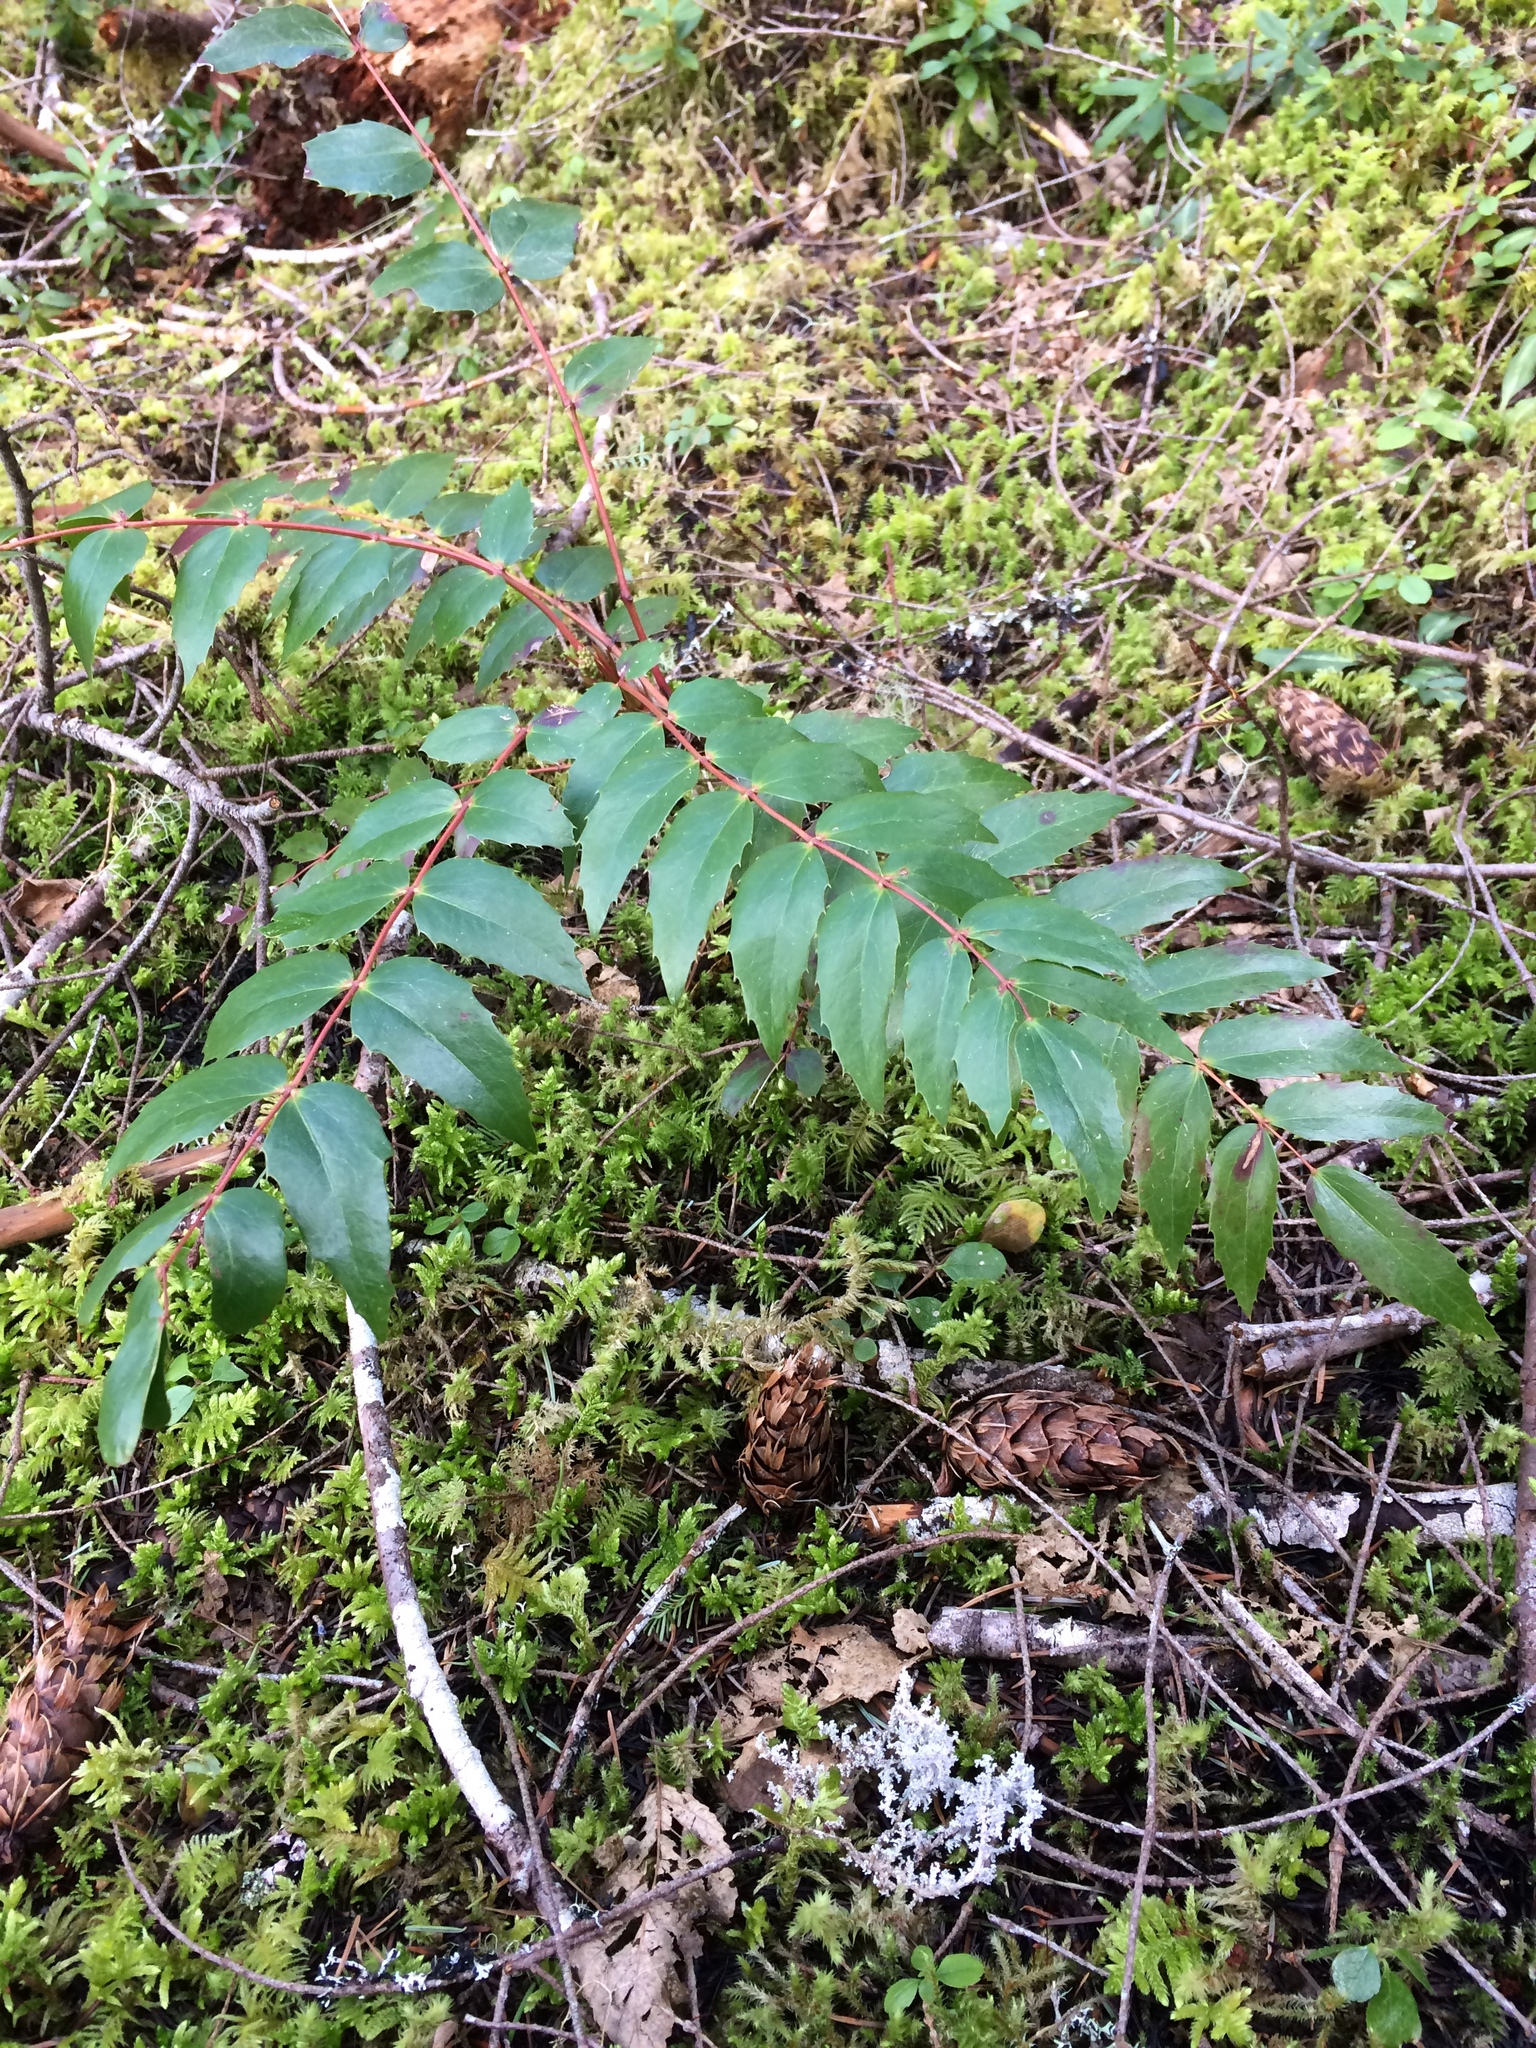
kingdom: Plantae
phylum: Tracheophyta
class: Magnoliopsida
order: Ranunculales
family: Berberidaceae
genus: Mahonia
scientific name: Mahonia nervosa
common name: Cascade oregon-grape
